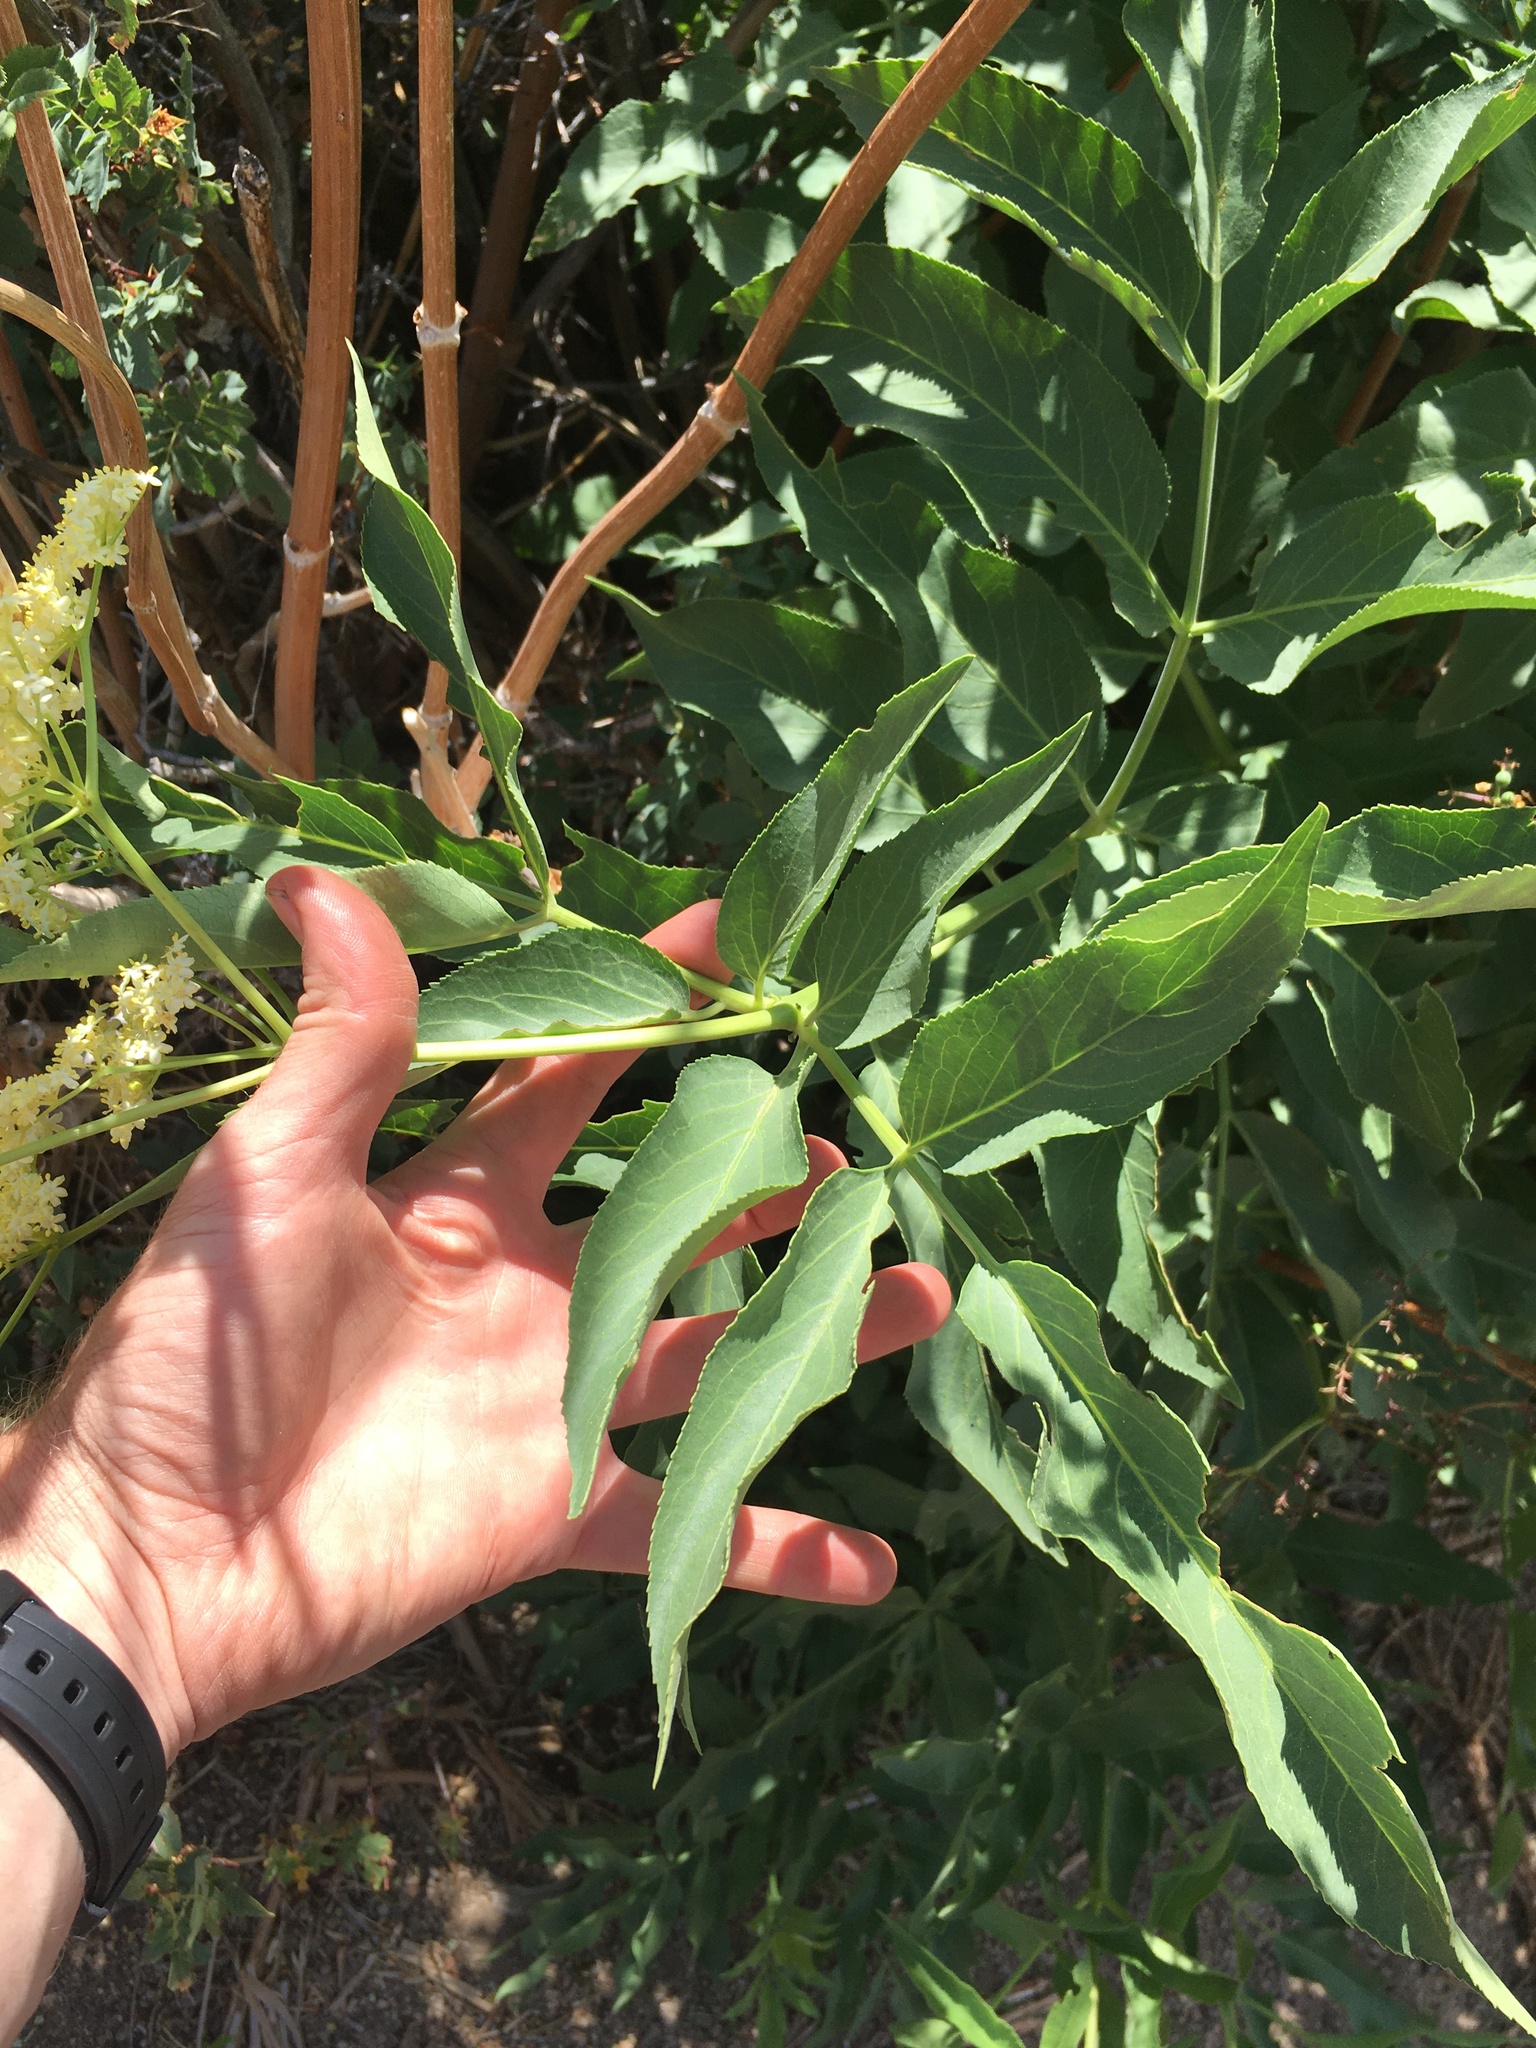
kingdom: Plantae
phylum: Tracheophyta
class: Magnoliopsida
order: Dipsacales
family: Viburnaceae
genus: Sambucus
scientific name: Sambucus cerulea
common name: Blue elder
